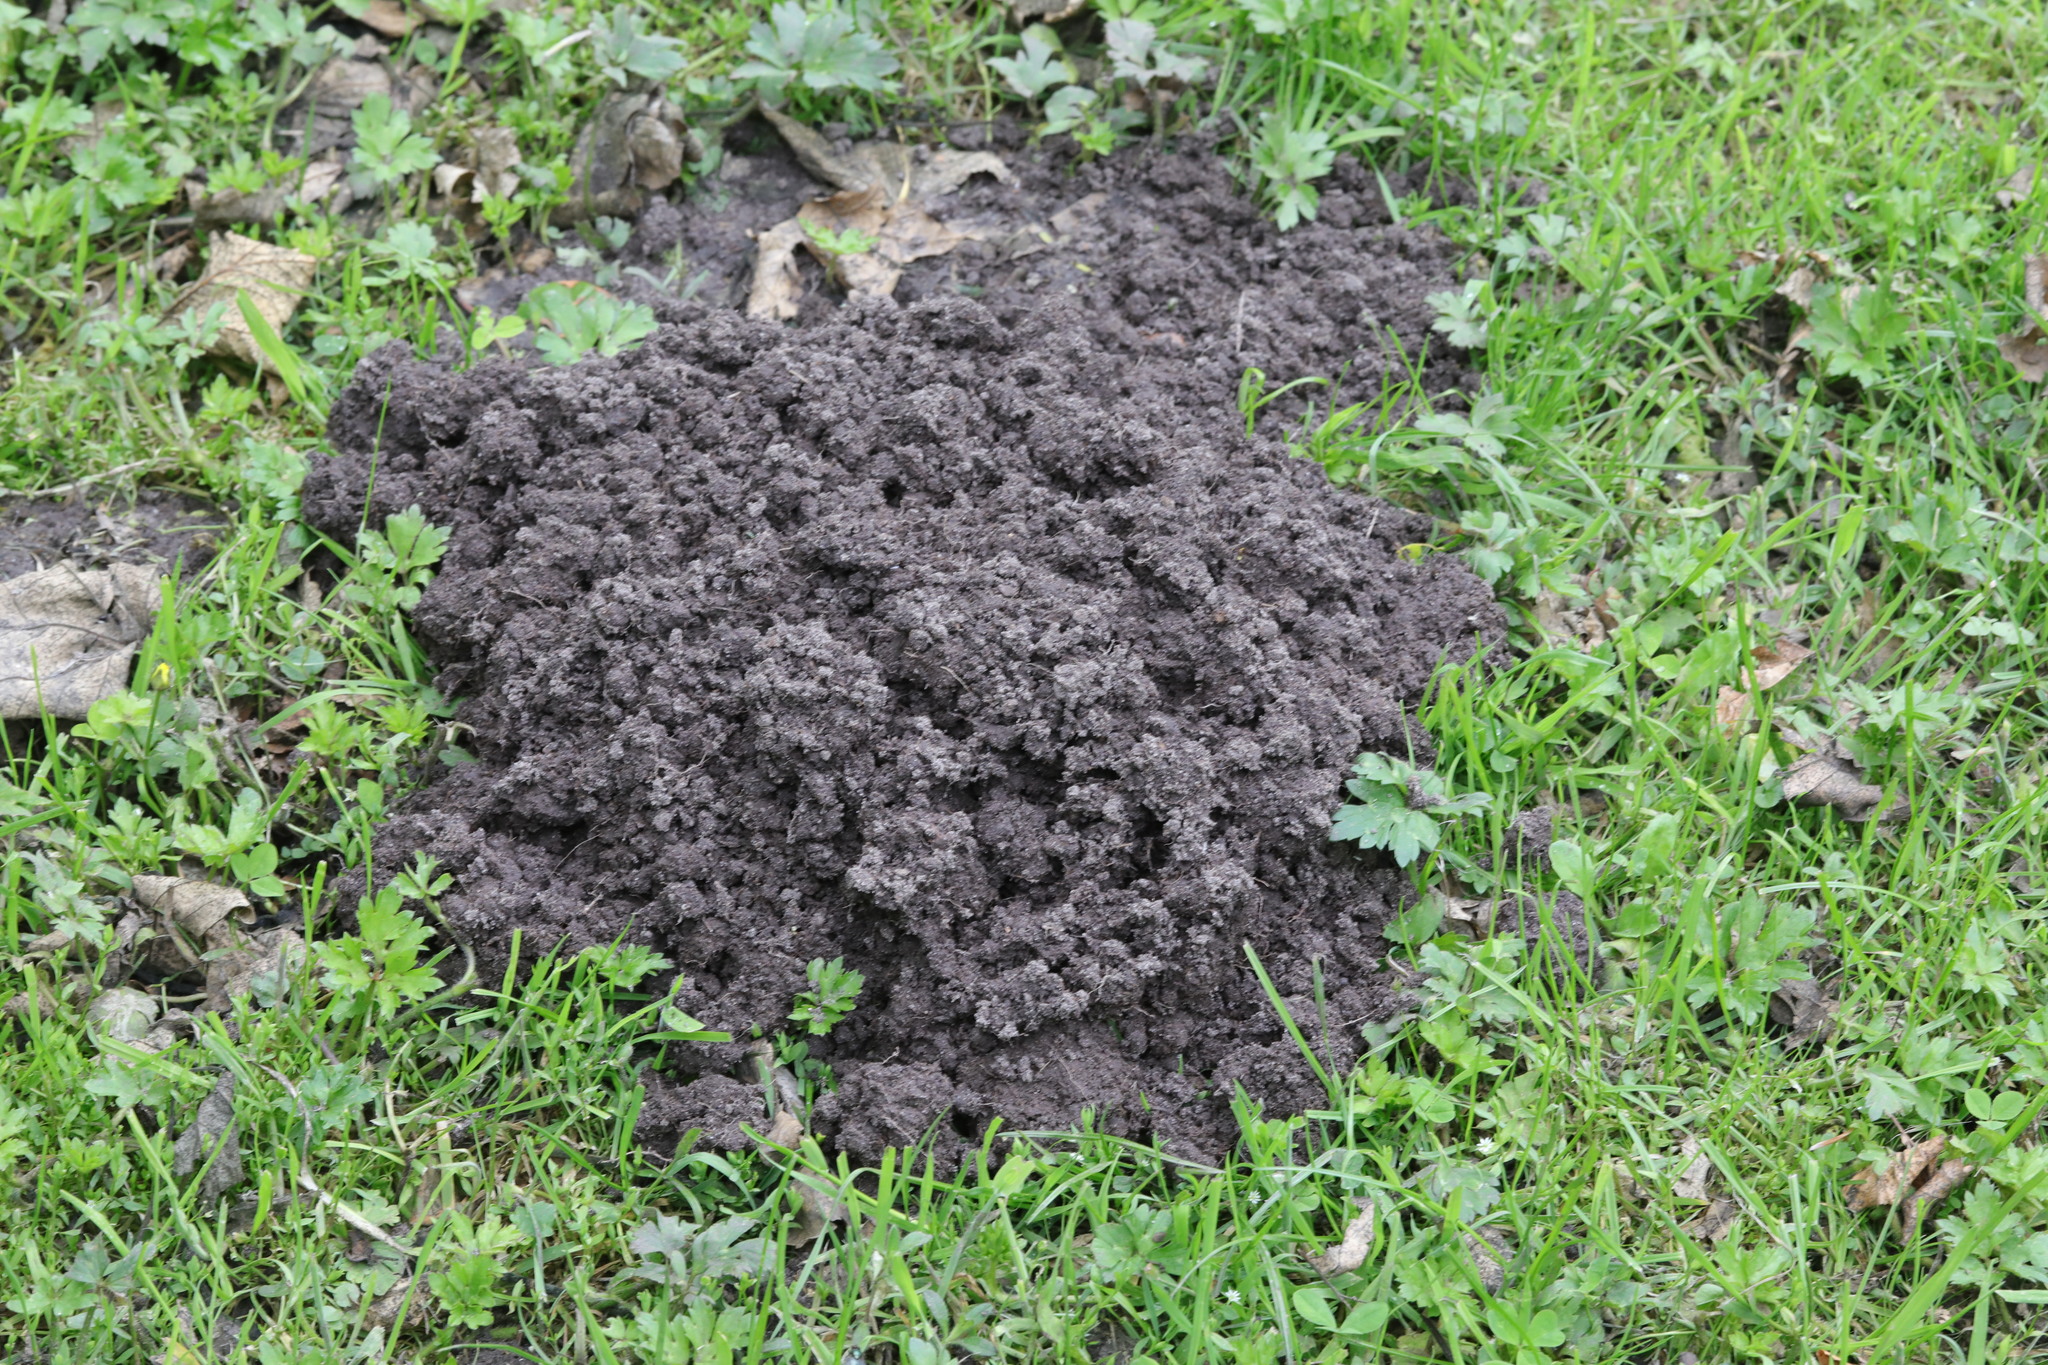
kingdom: Animalia
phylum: Chordata
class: Mammalia
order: Soricomorpha
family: Talpidae
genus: Talpa
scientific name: Talpa europaea
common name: European mole
